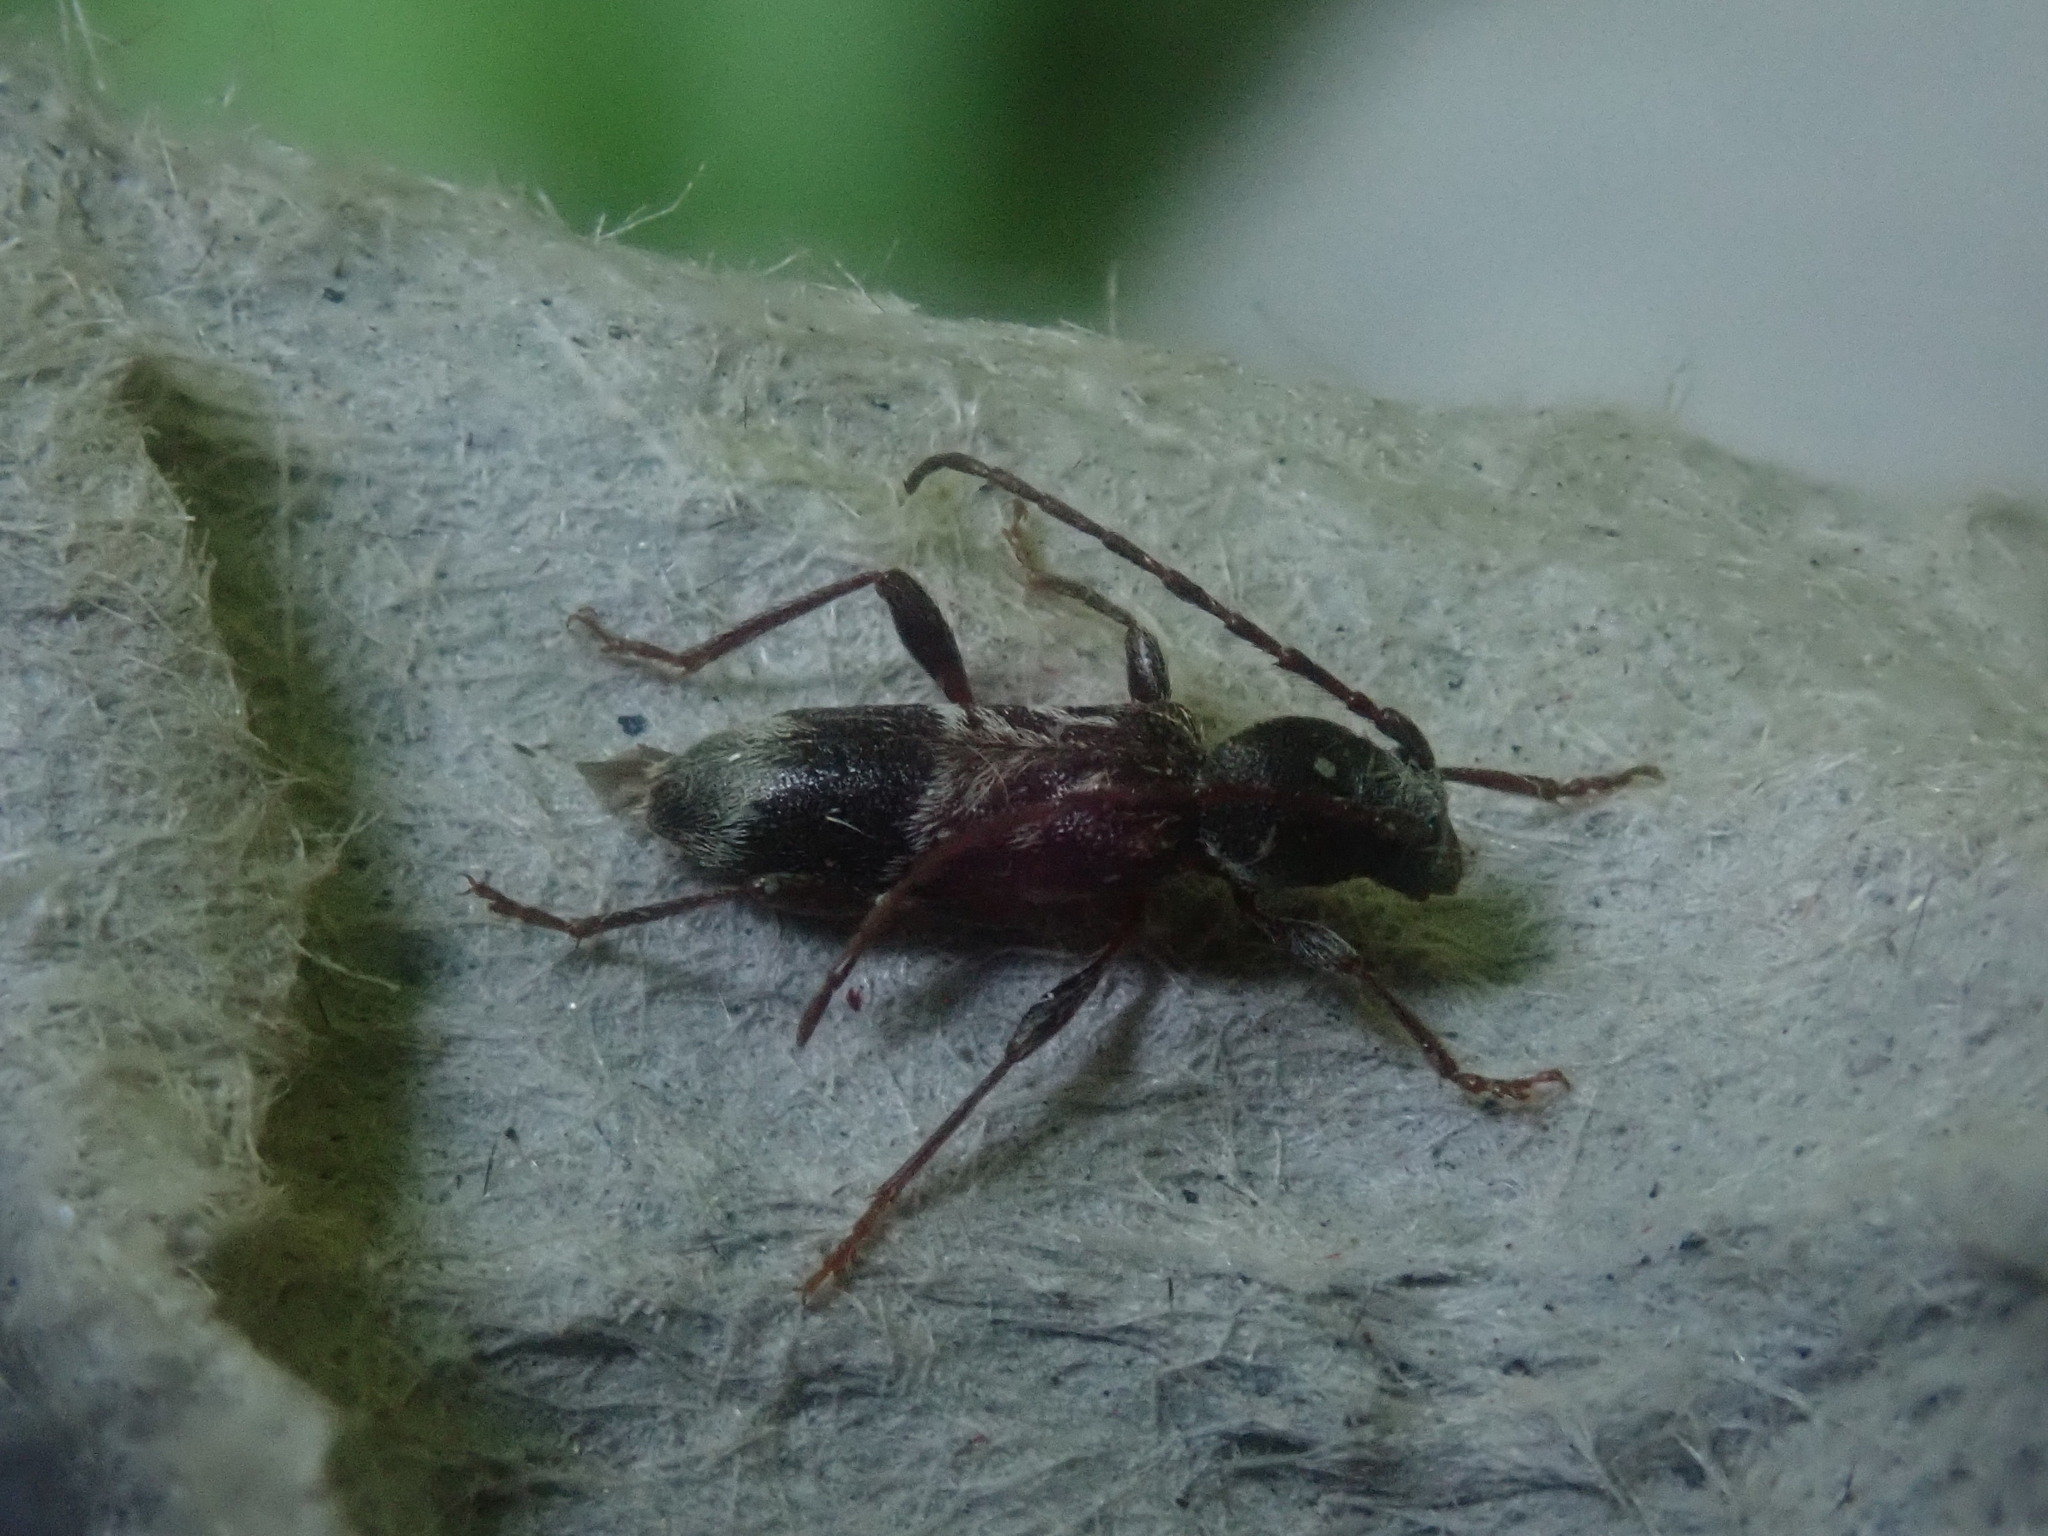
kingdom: Animalia
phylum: Arthropoda
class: Insecta
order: Coleoptera
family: Cerambycidae
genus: Oligoenoplus
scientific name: Oligoenoplus compressicollis
